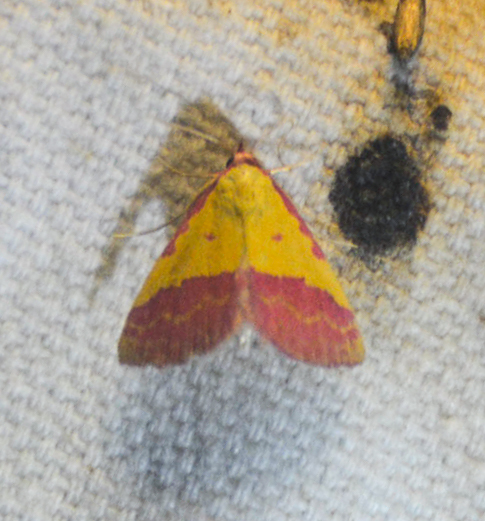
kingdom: Animalia
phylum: Arthropoda
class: Insecta
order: Lepidoptera
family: Erebidae
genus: Phytometra
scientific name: Phytometra rhodarialis
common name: Pink-bordered yellow
